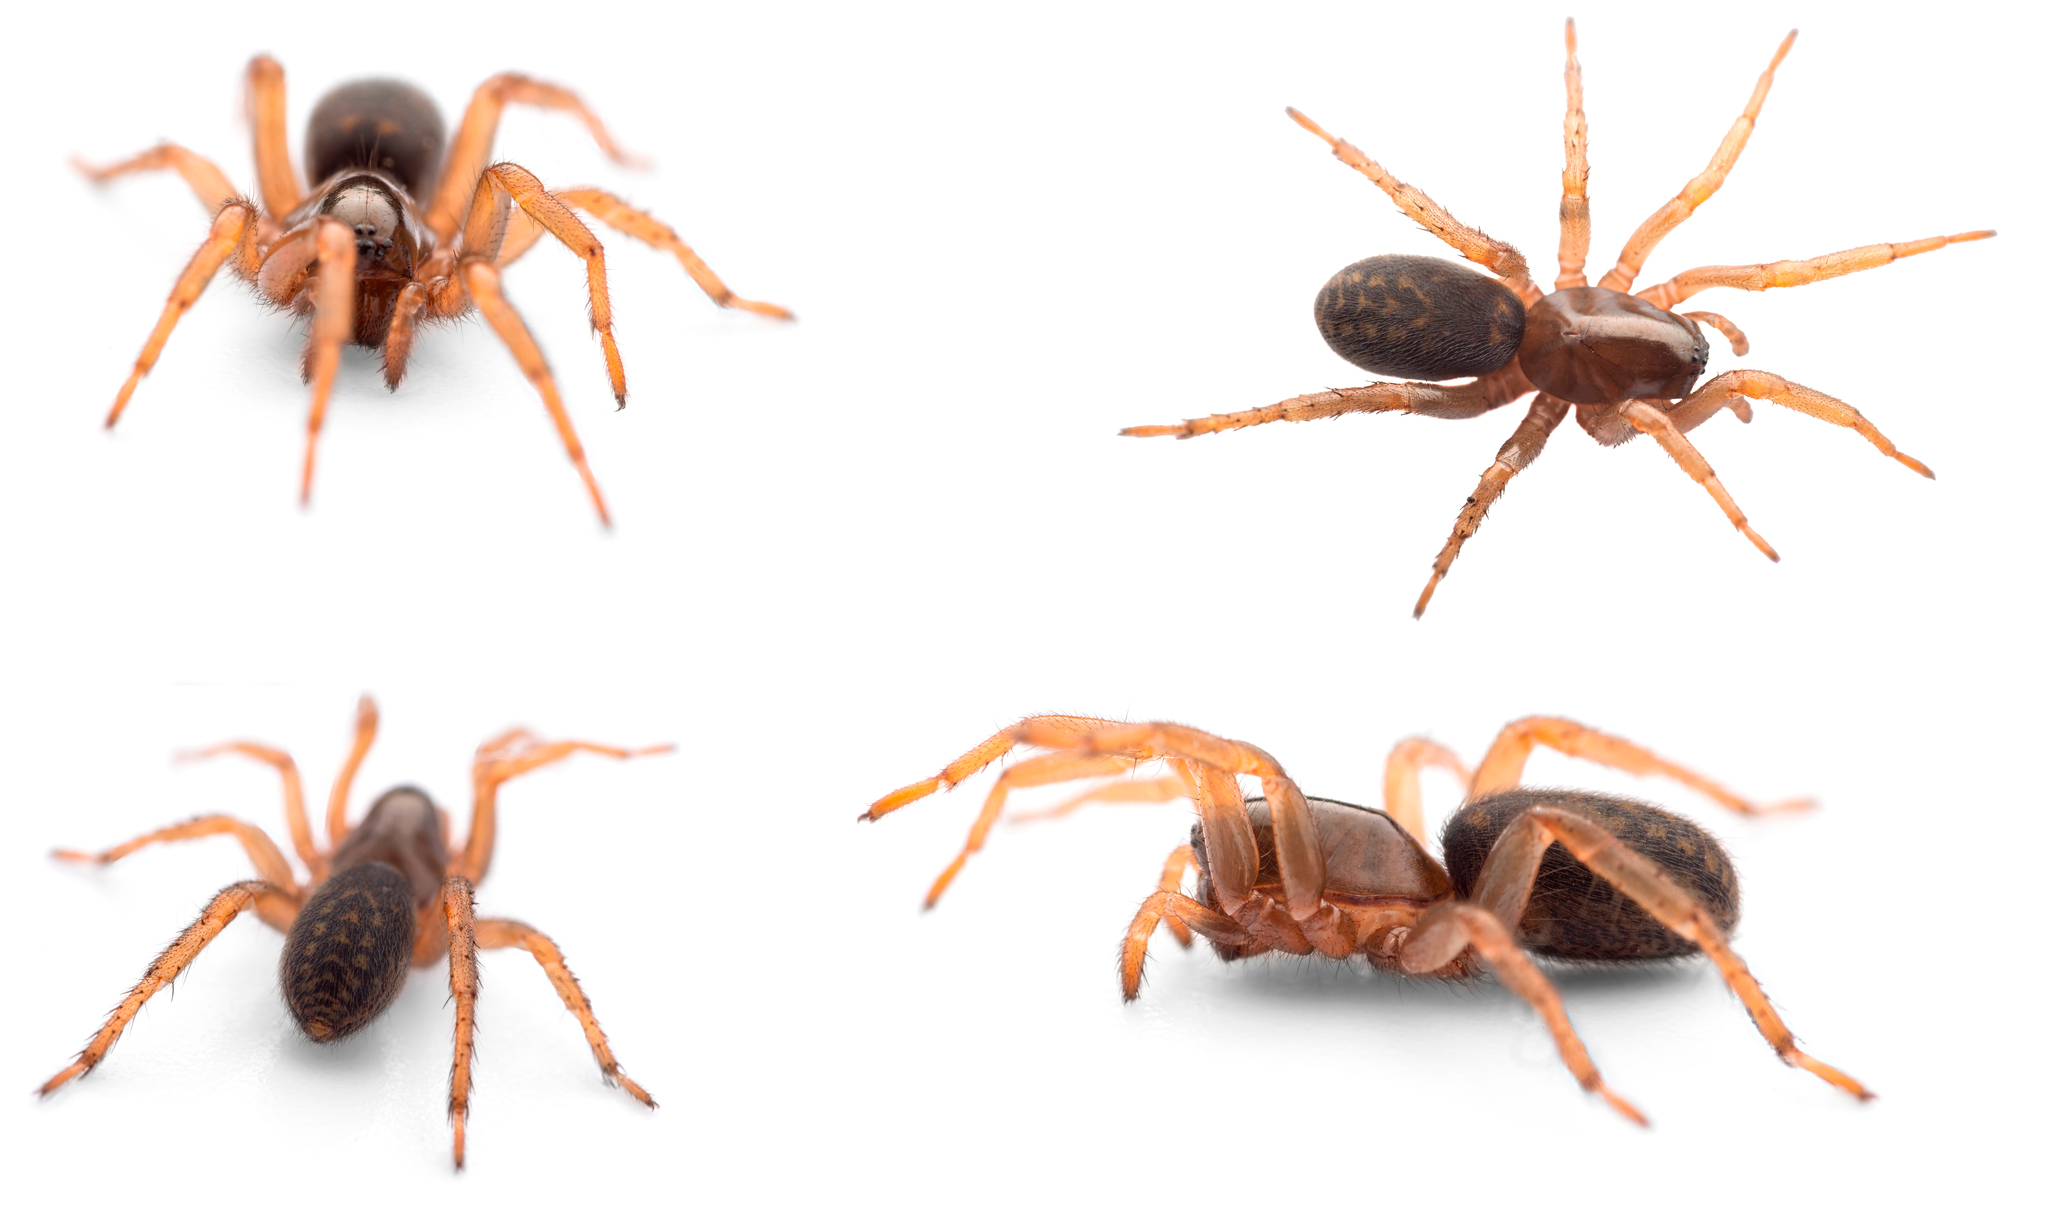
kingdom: Animalia
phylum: Arthropoda
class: Arachnida
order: Araneae
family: Zodariidae
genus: Selamia
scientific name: Selamia reticulata
